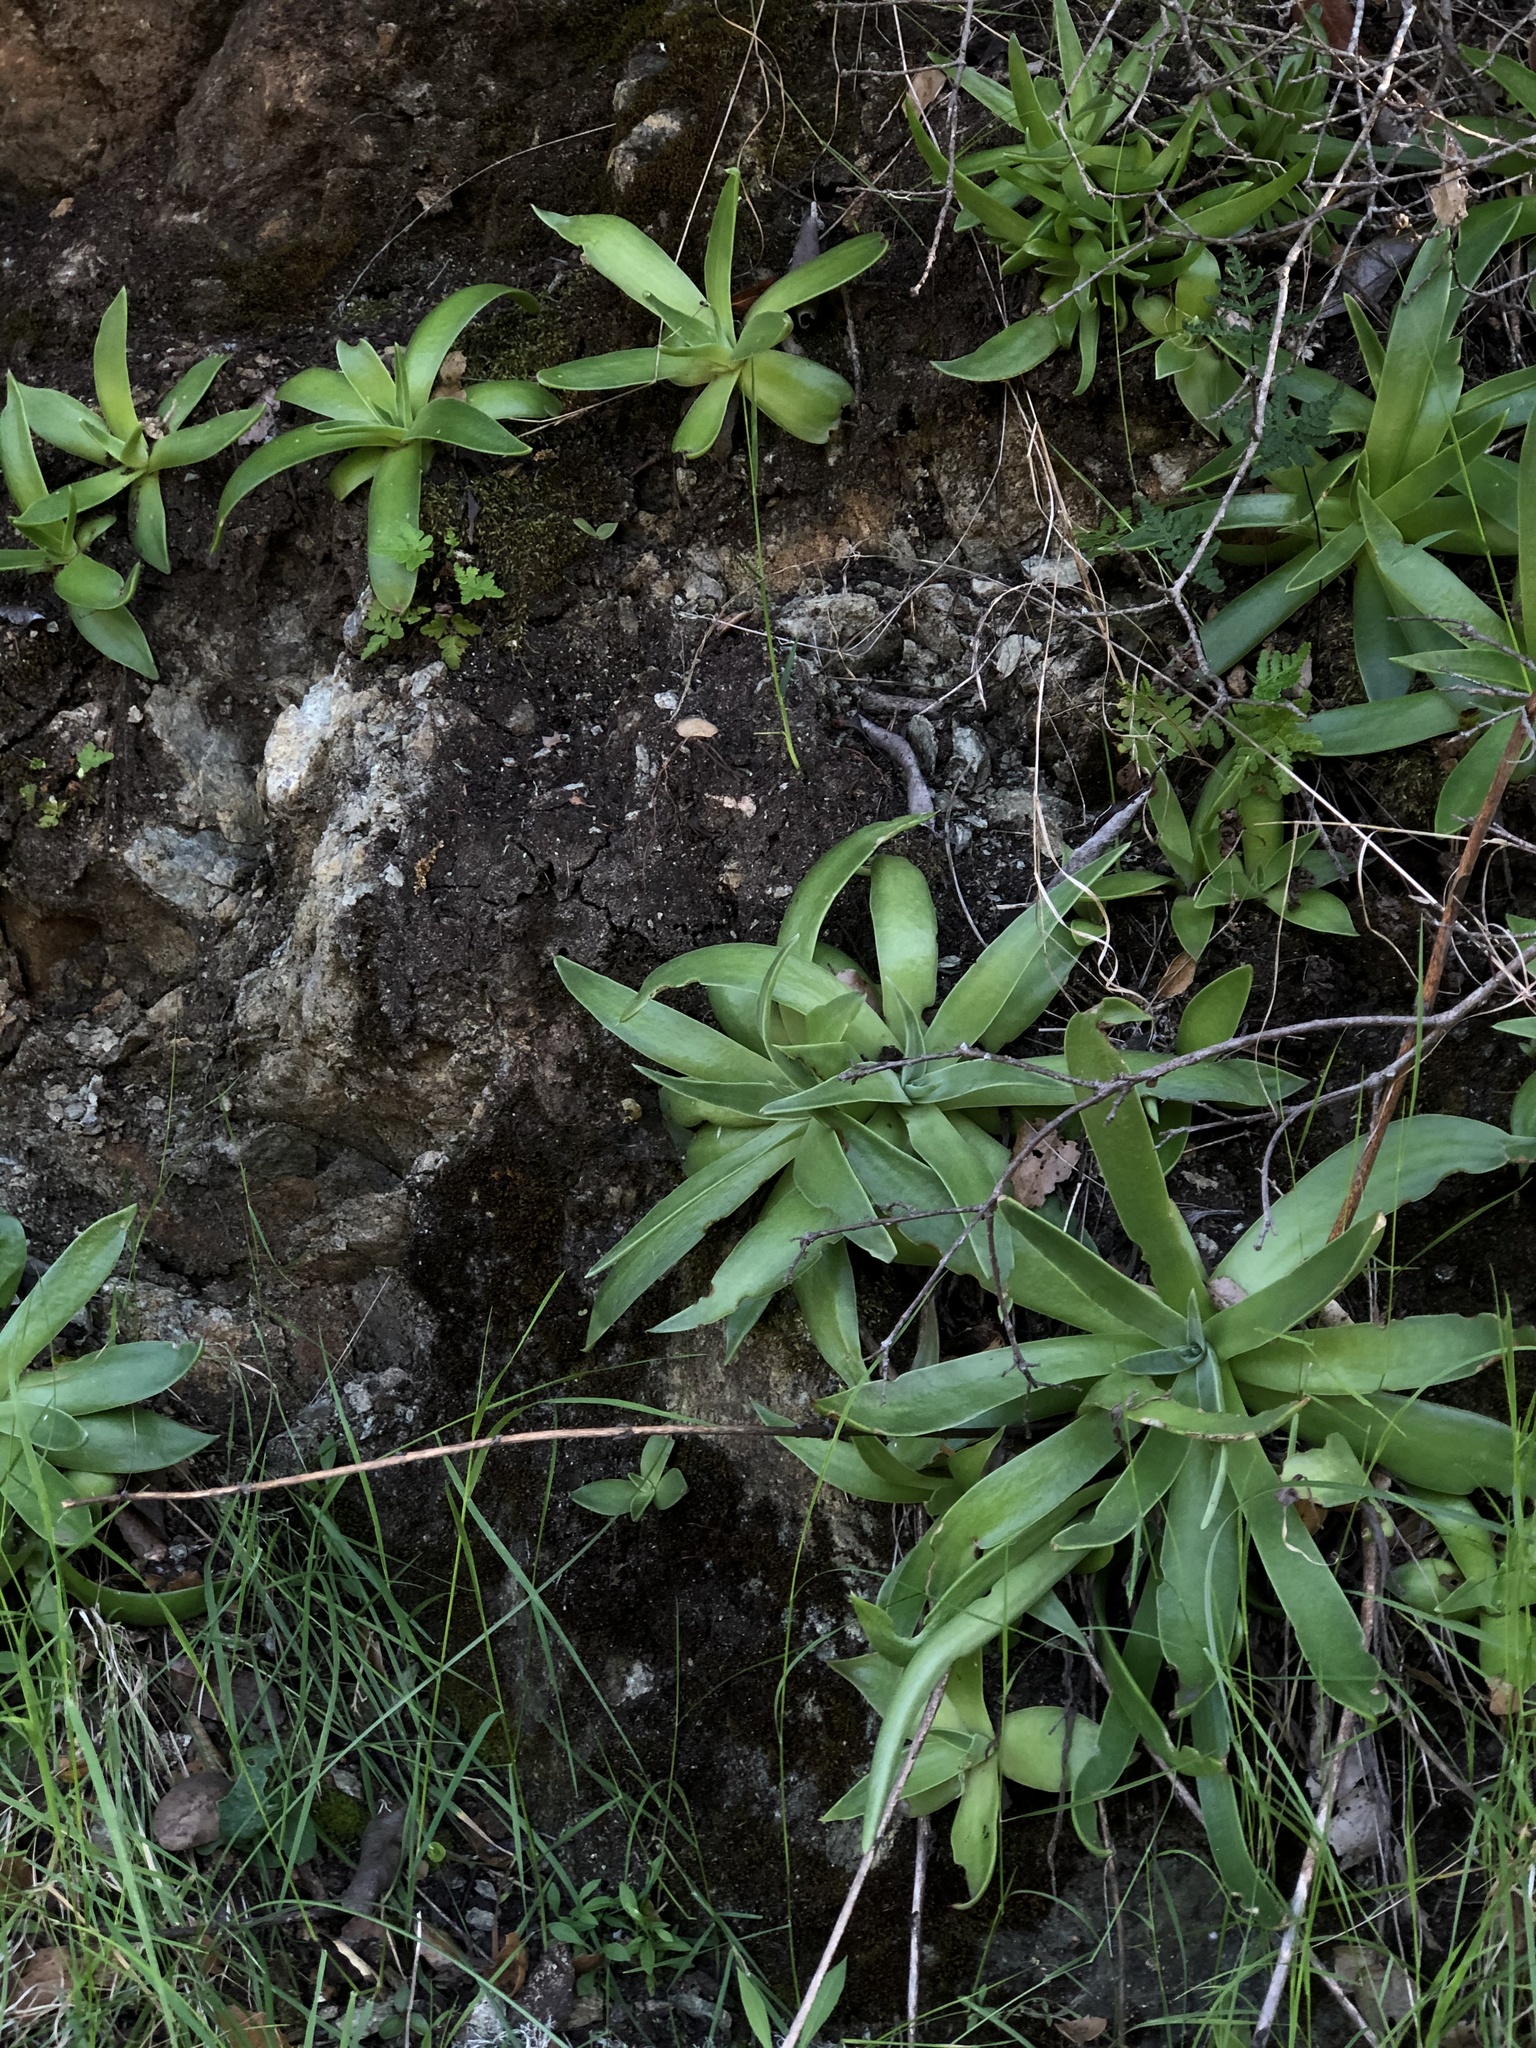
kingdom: Plantae
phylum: Tracheophyta
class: Magnoliopsida
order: Saxifragales
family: Crassulaceae
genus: Dudleya
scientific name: Dudleya lanceolata
